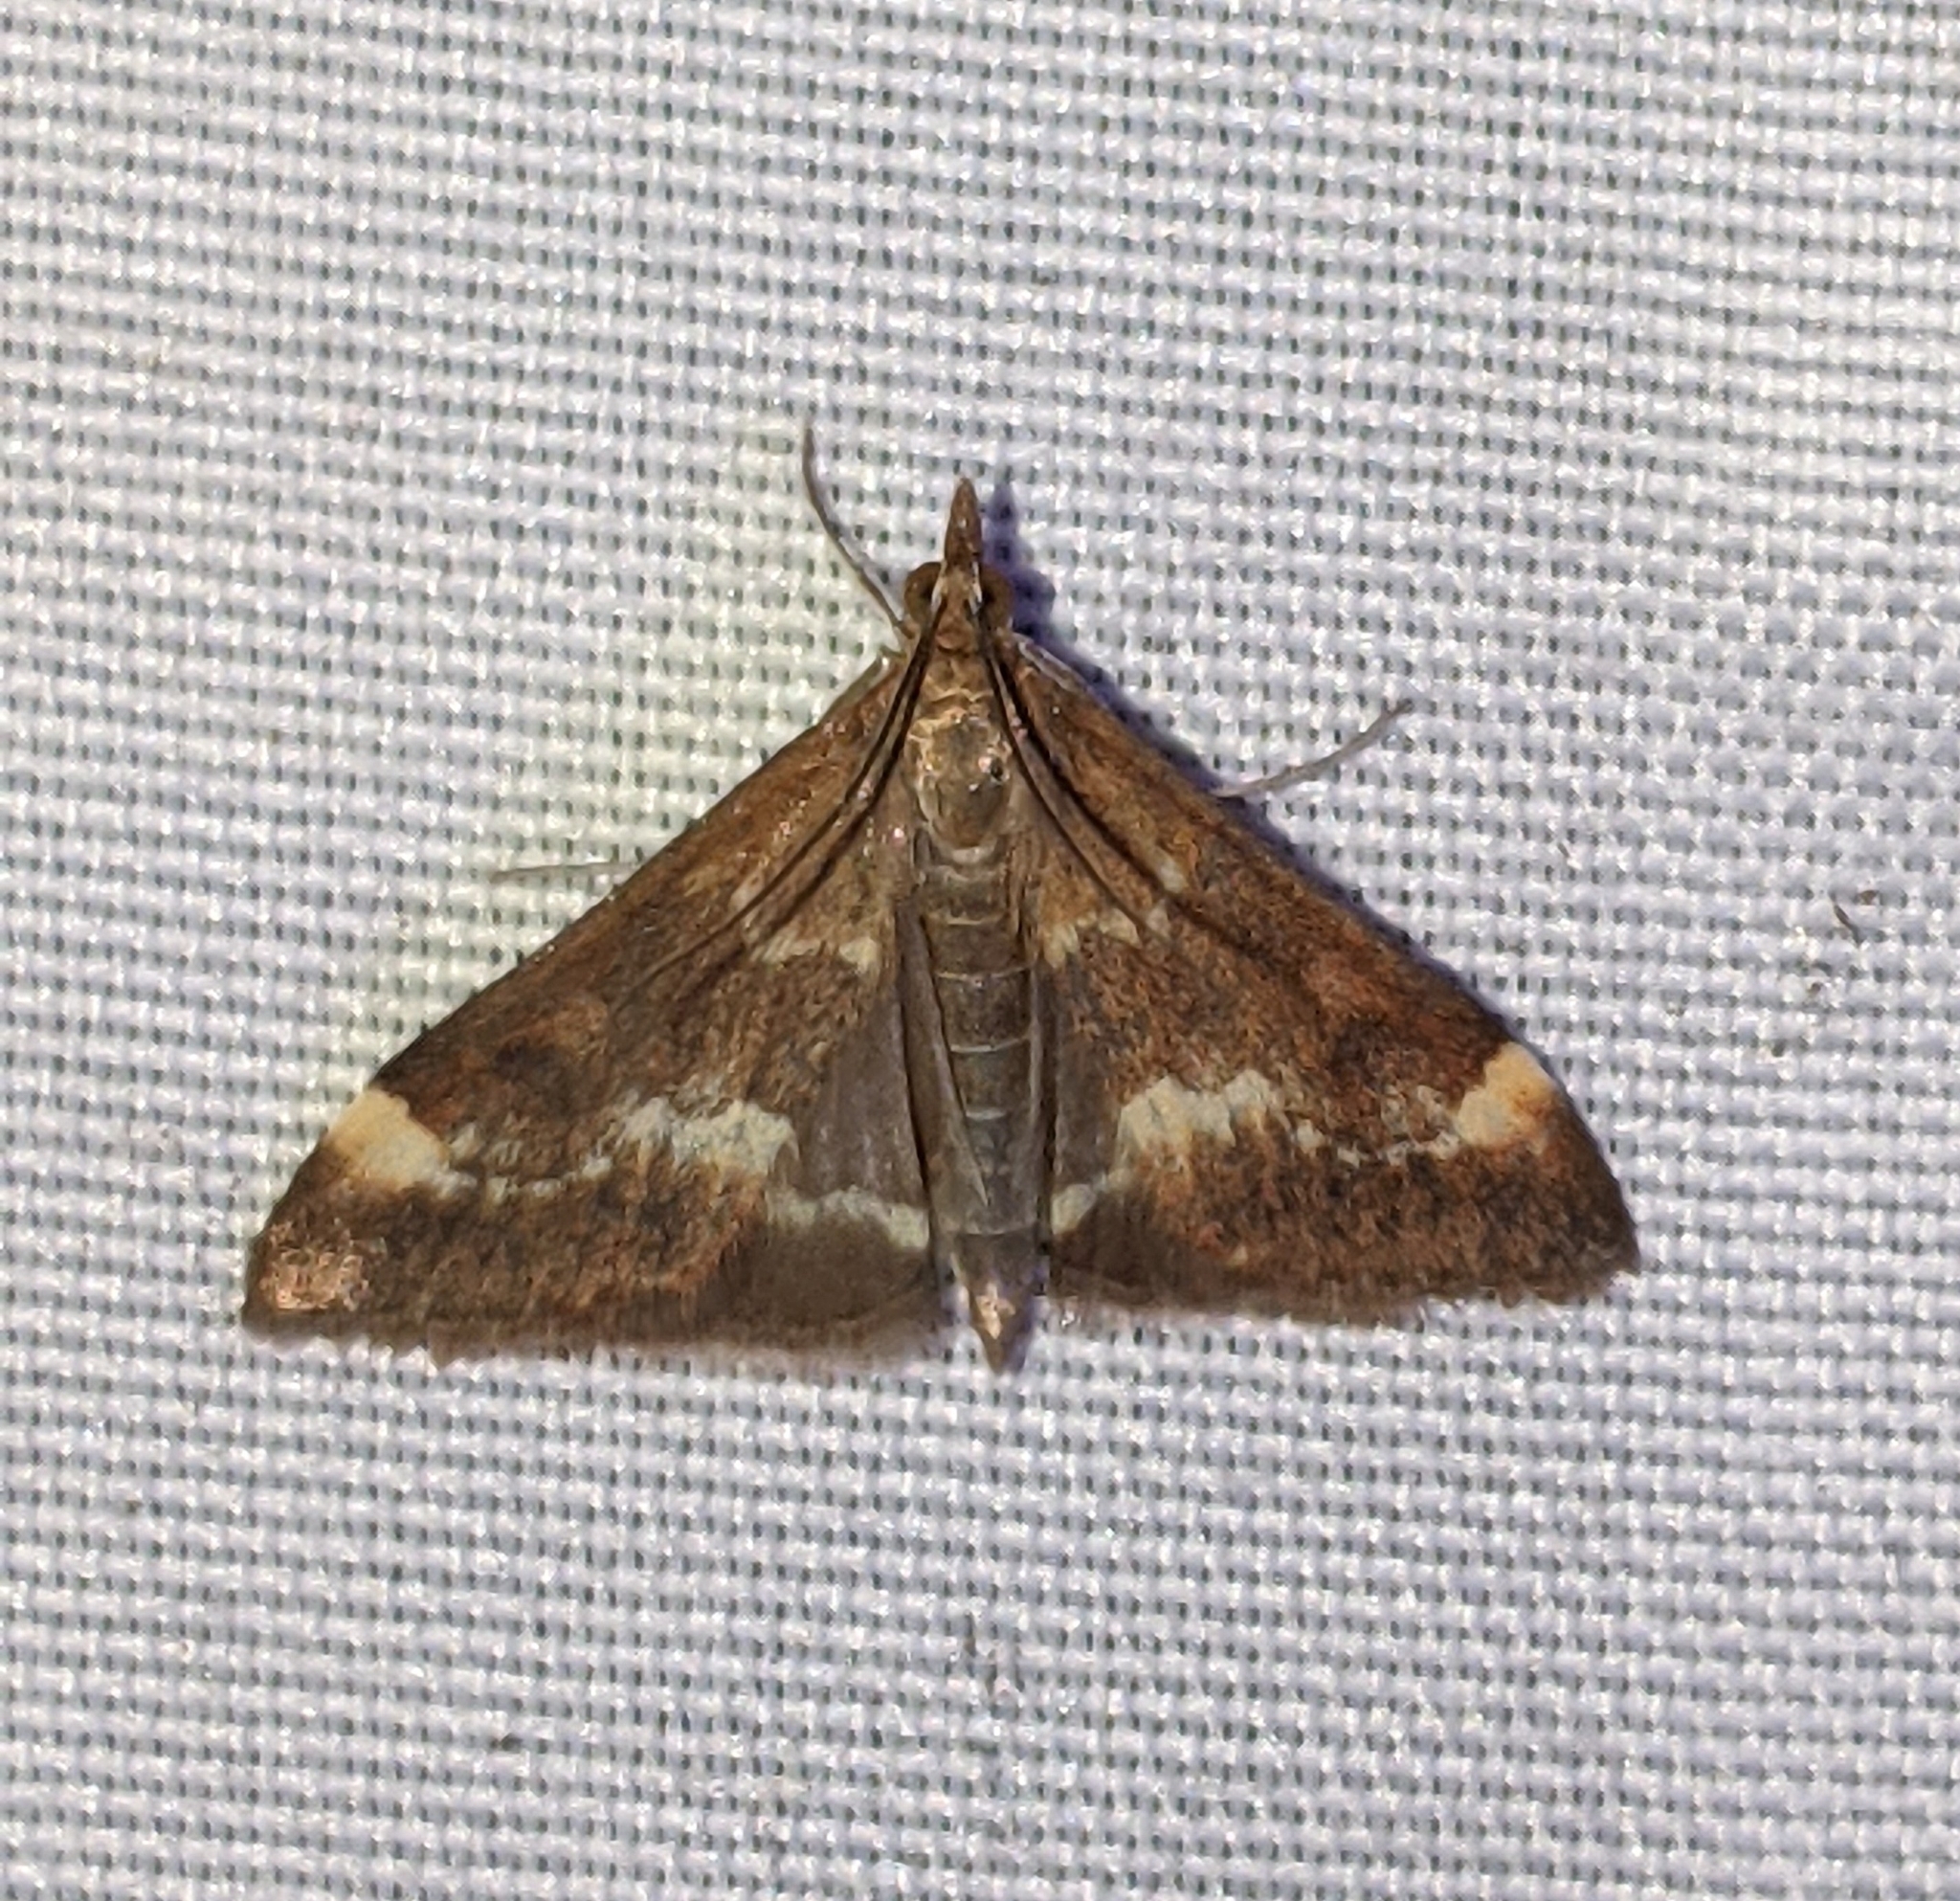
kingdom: Animalia
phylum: Arthropoda
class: Insecta
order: Lepidoptera
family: Crambidae
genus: Pyrausta
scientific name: Pyrausta nicalis
